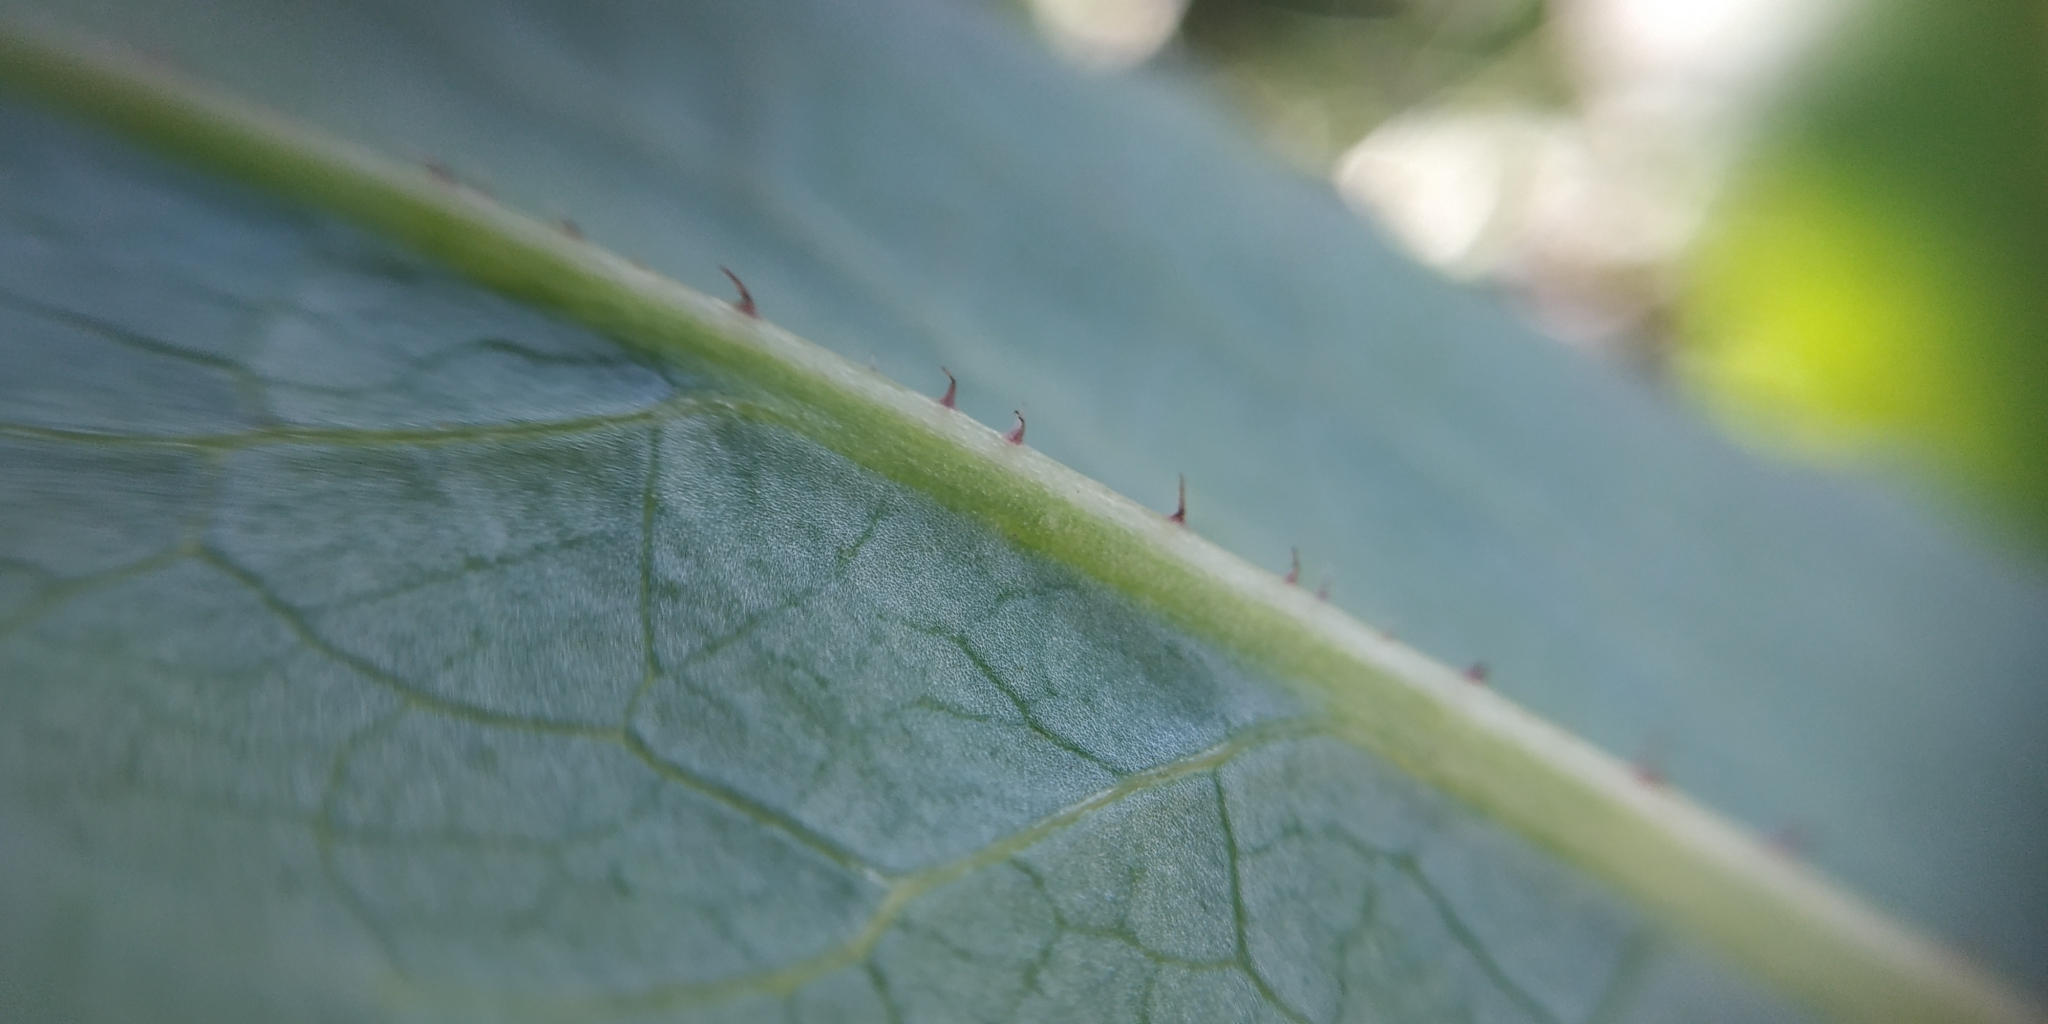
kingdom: Plantae
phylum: Tracheophyta
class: Magnoliopsida
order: Asterales
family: Asteraceae
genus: Lactuca
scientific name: Lactuca serriola
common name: Prickly lettuce
